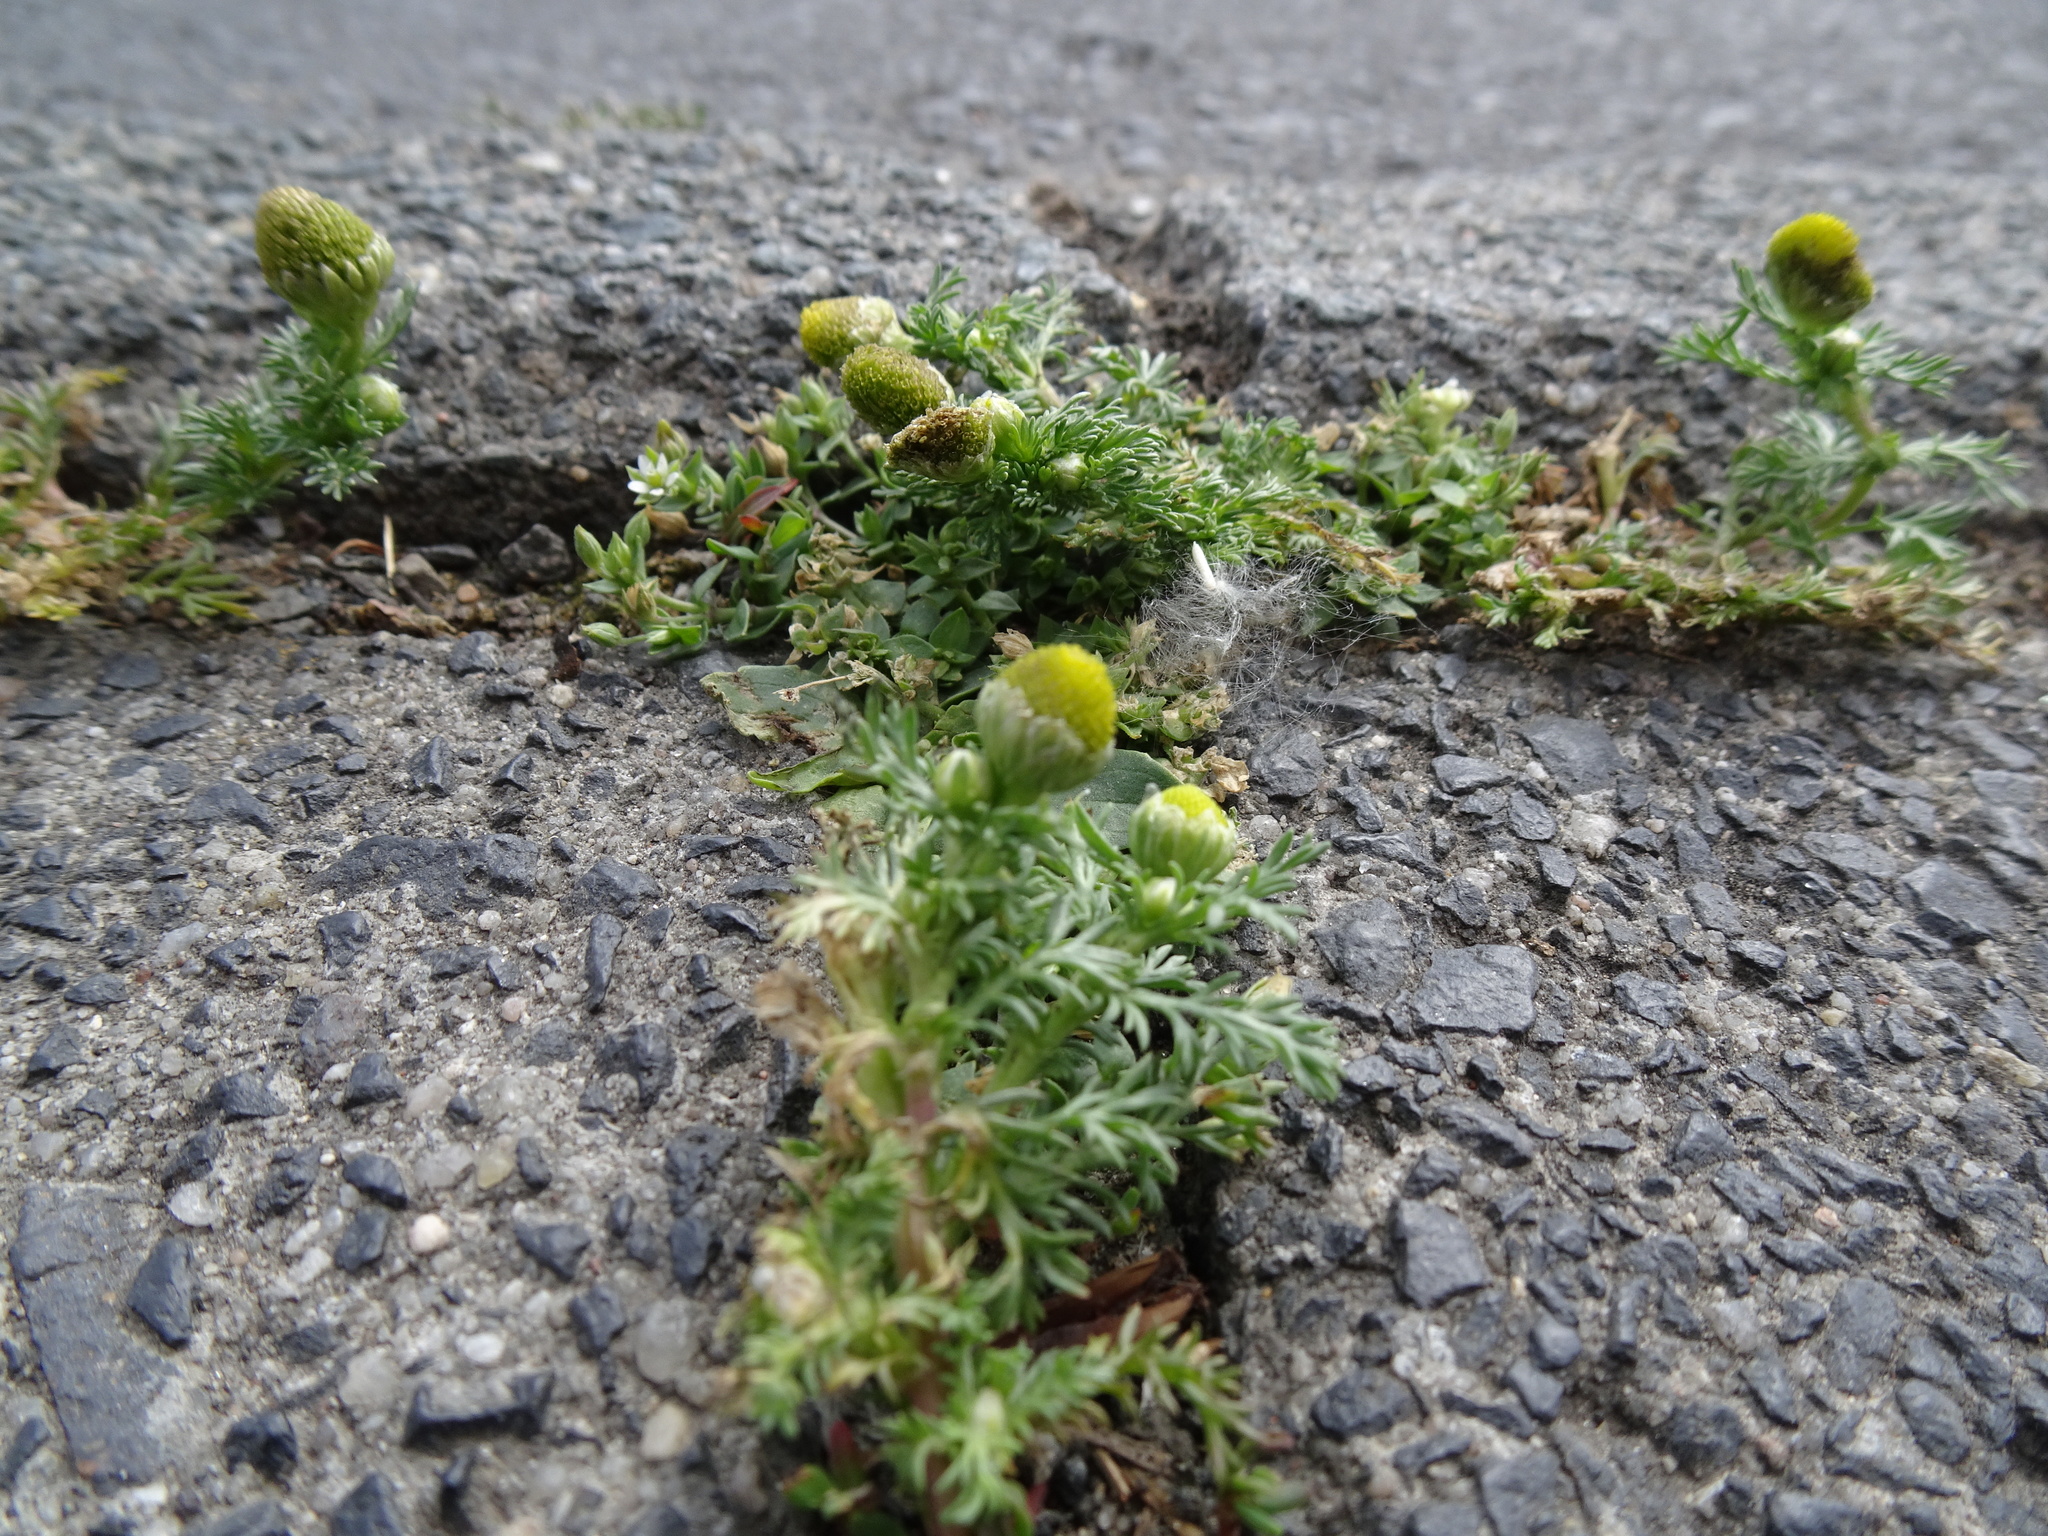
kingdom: Plantae
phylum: Tracheophyta
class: Magnoliopsida
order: Asterales
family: Asteraceae
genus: Matricaria
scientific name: Matricaria discoidea
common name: Disc mayweed
